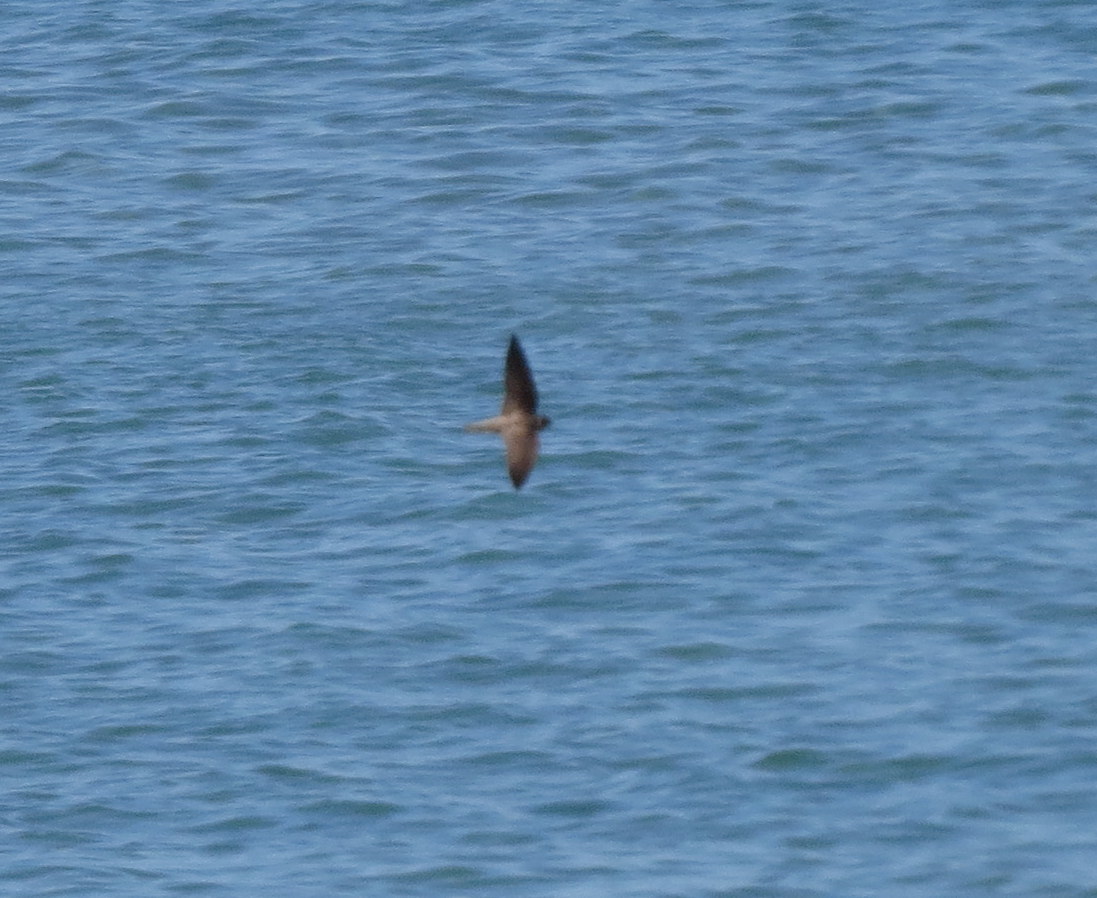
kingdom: Animalia
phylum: Chordata
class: Aves
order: Passeriformes
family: Hirundinidae
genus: Progne
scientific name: Progne subis
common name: Purple martin
